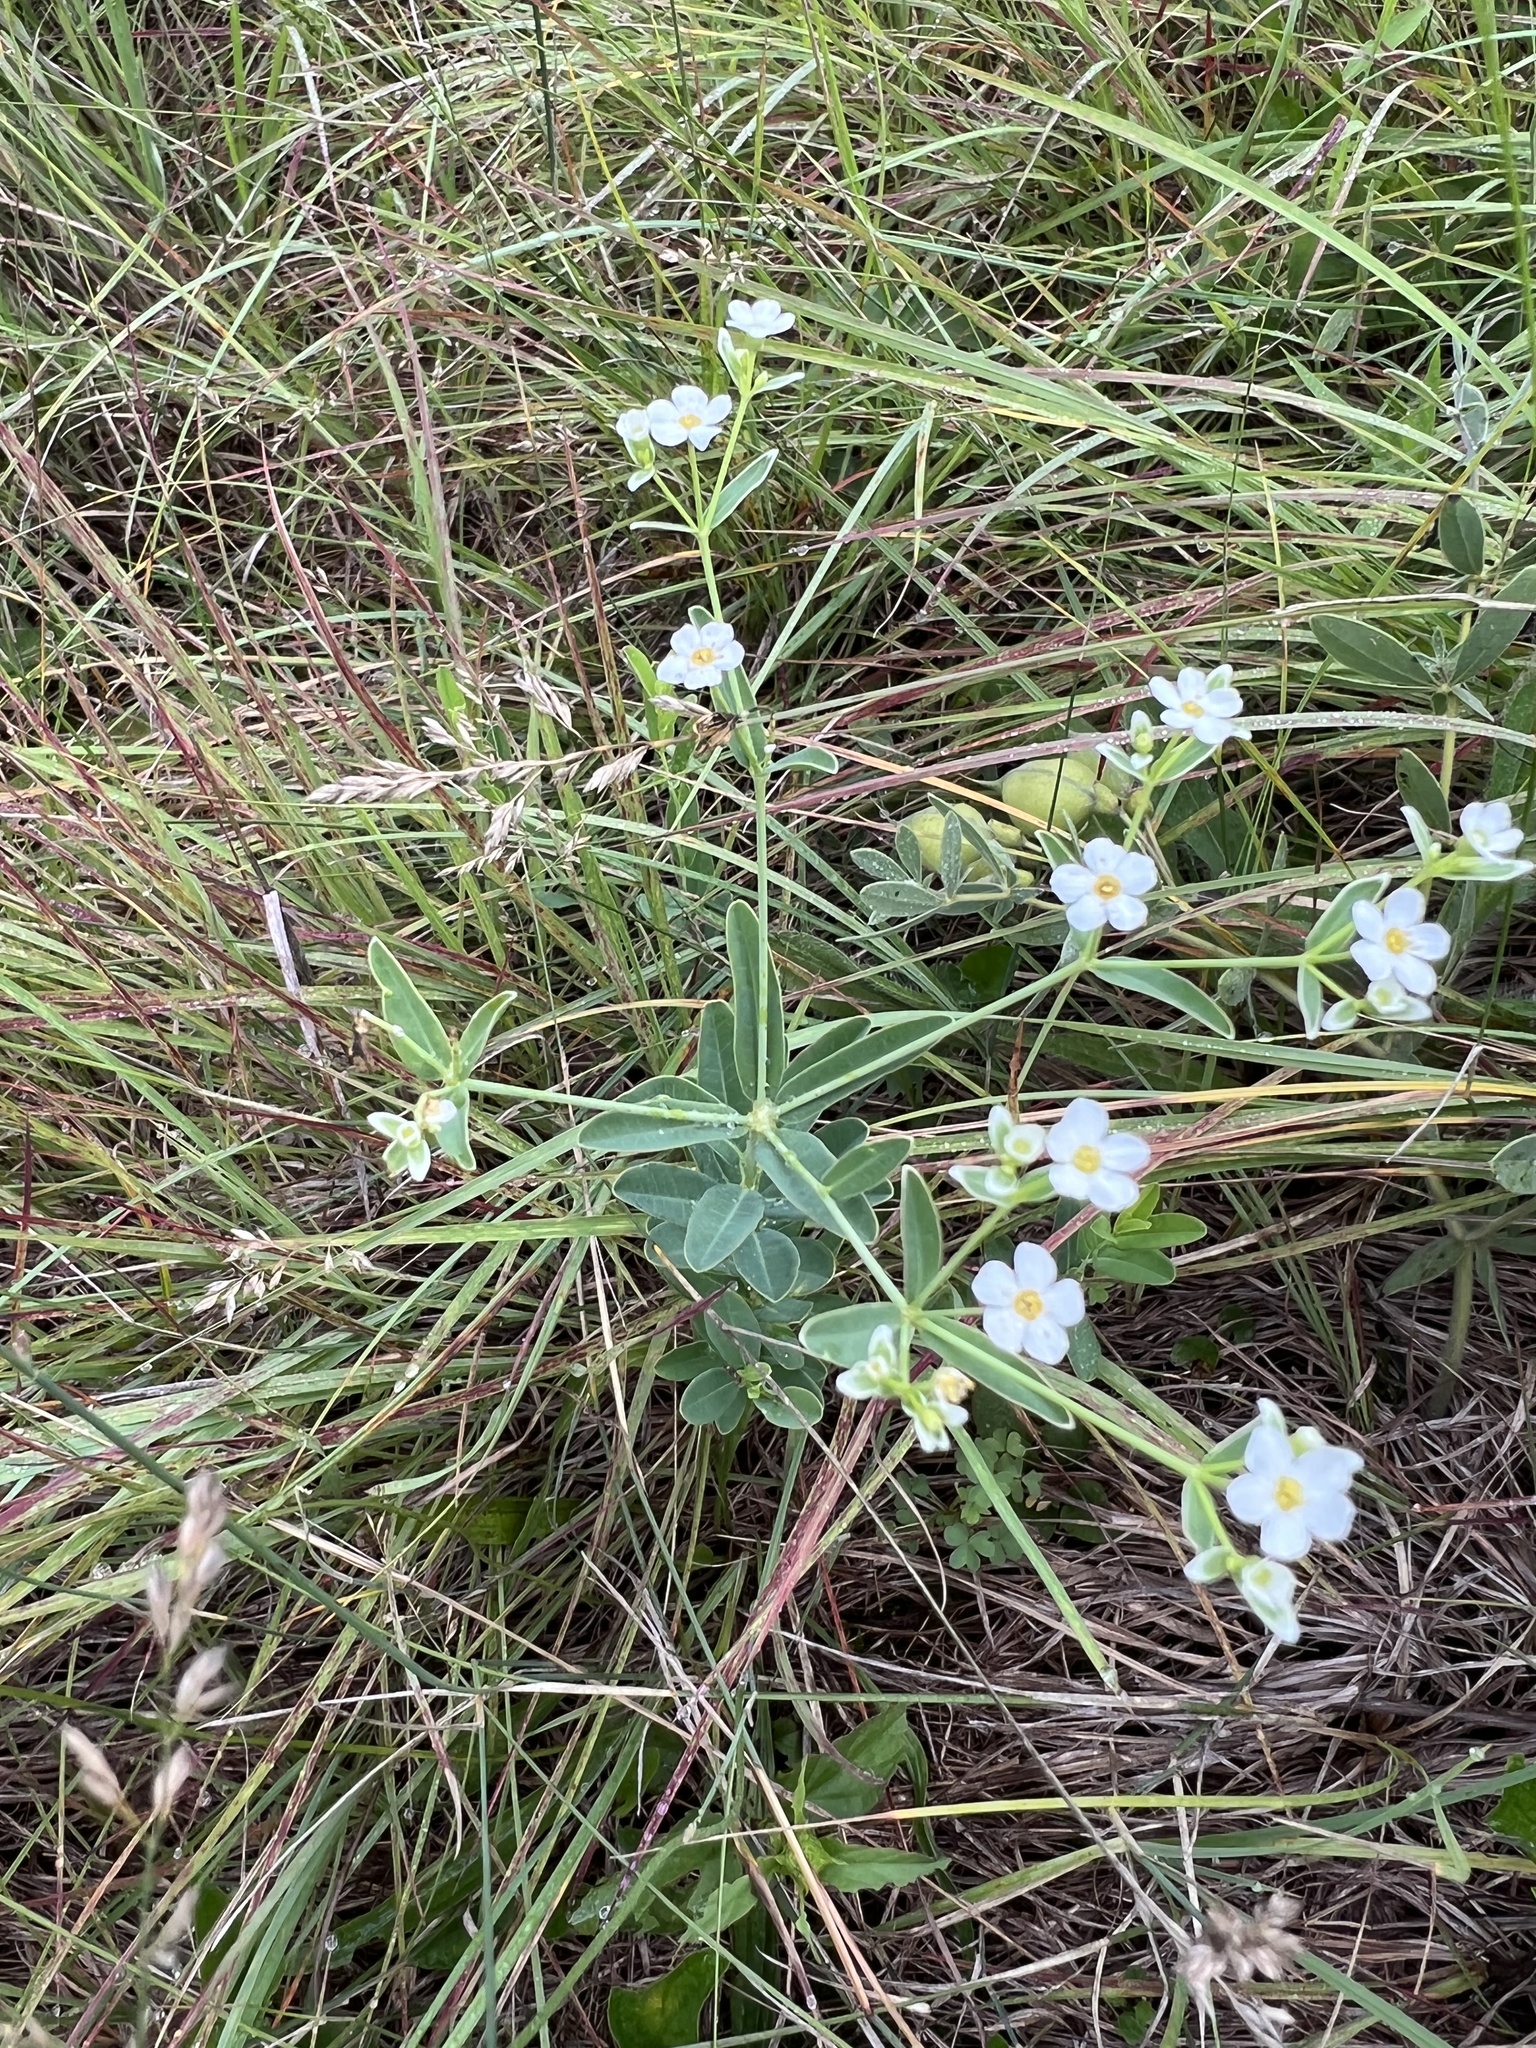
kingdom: Plantae
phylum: Tracheophyta
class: Magnoliopsida
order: Malpighiales
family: Euphorbiaceae
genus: Euphorbia
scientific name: Euphorbia corollata
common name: Flowering spurge
